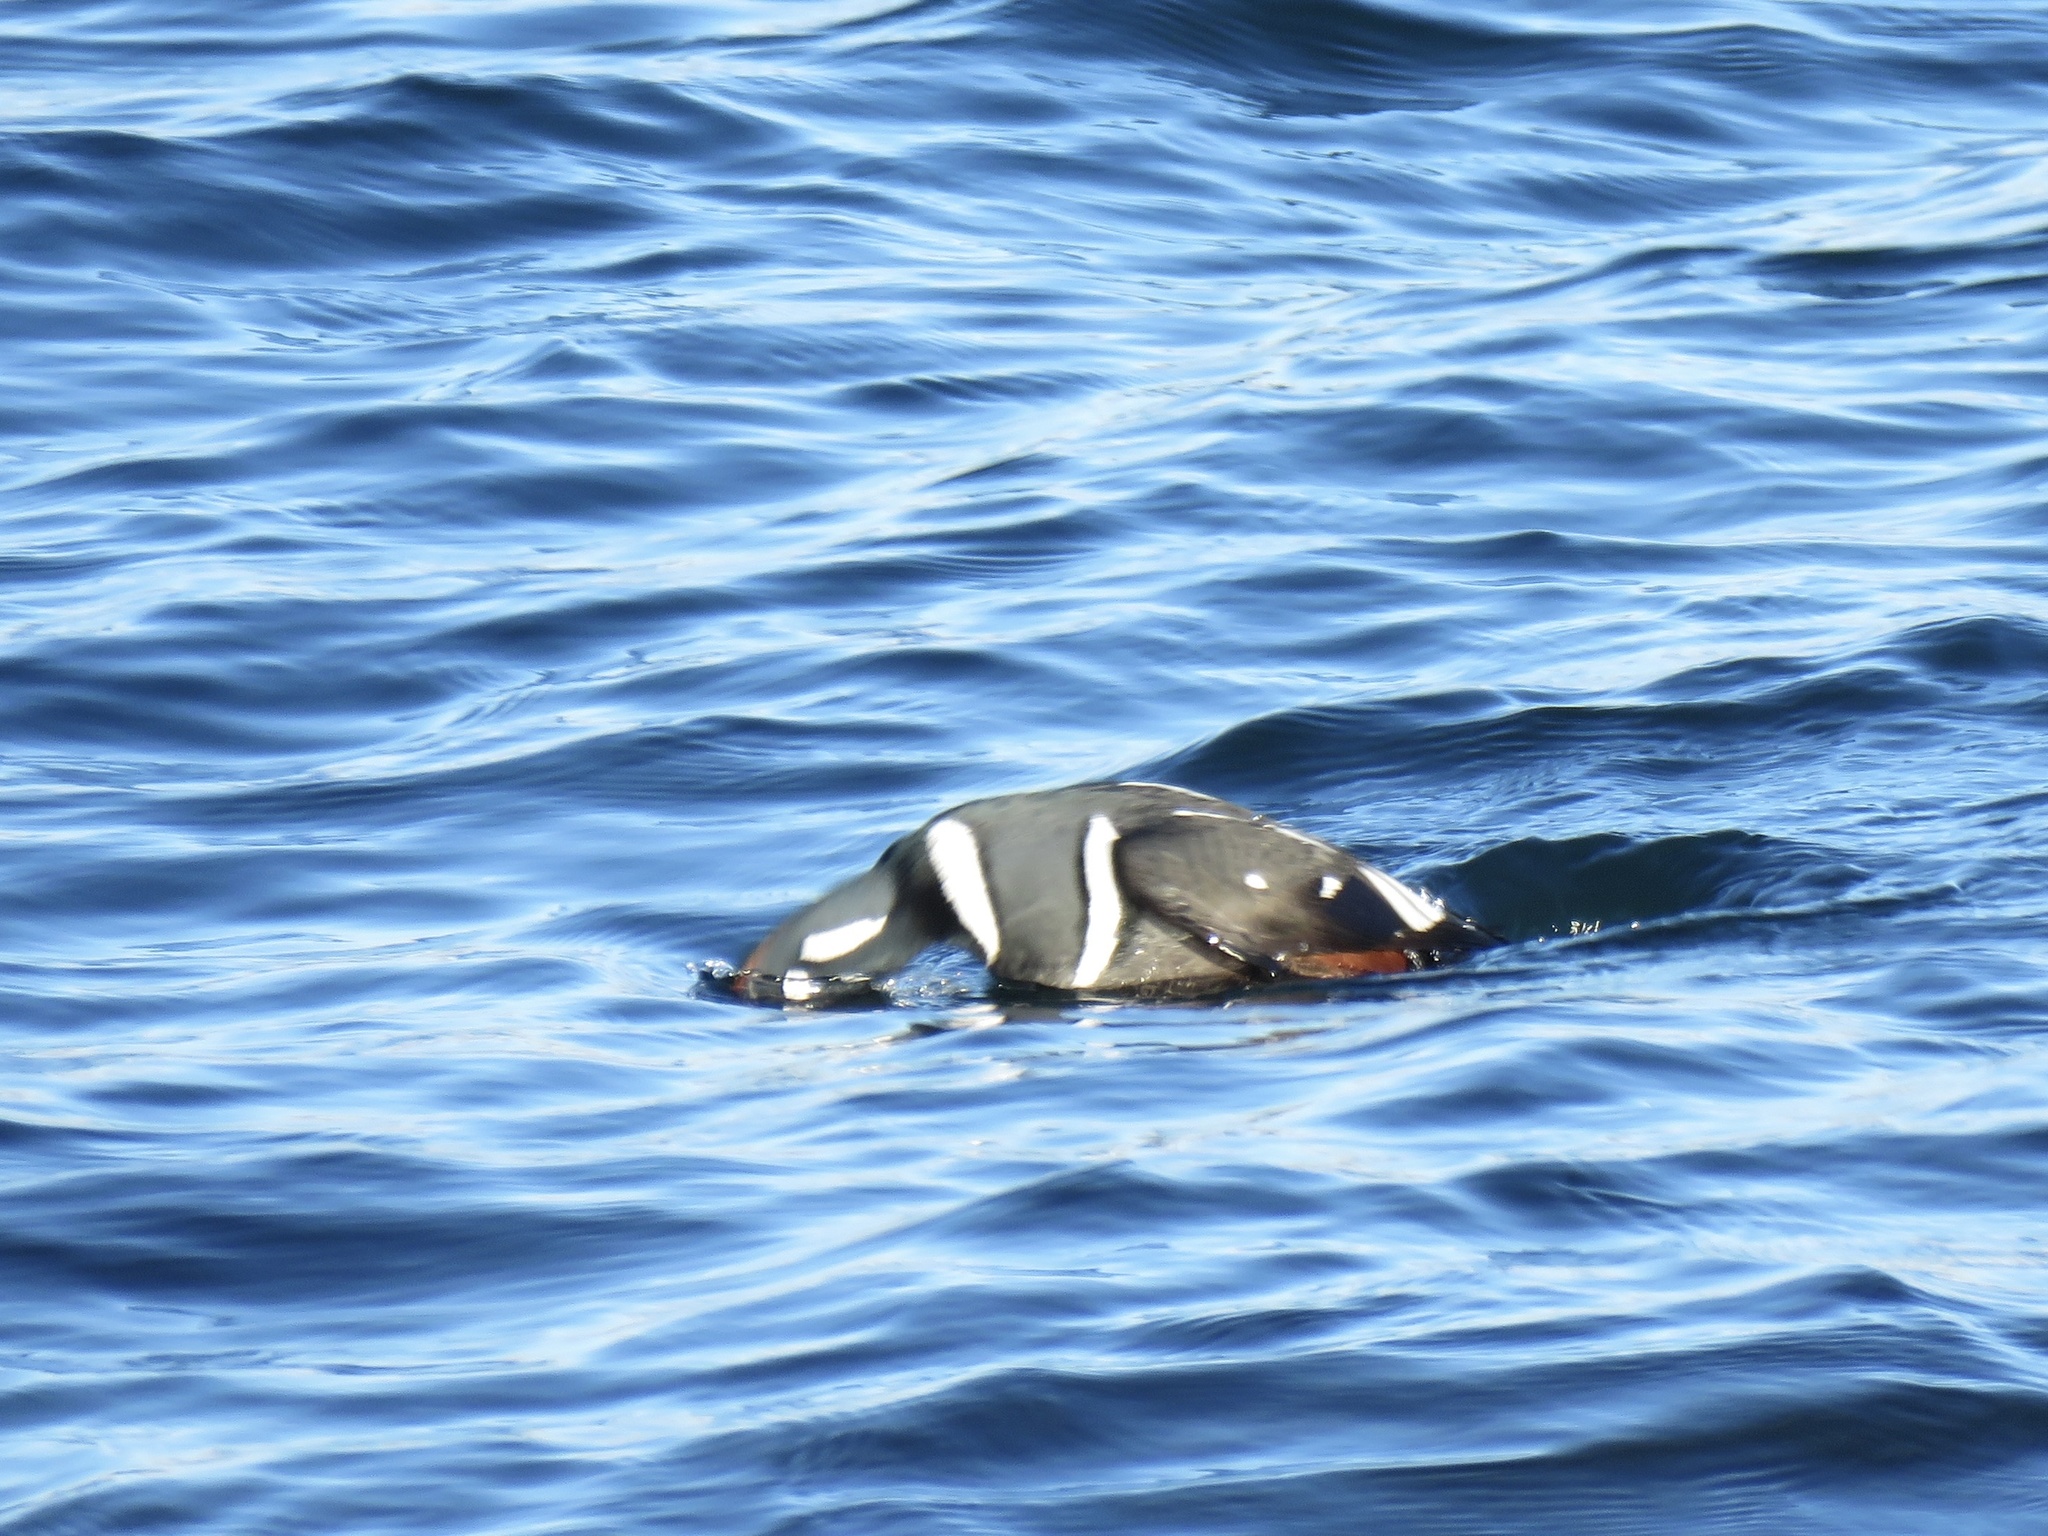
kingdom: Animalia
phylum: Chordata
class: Aves
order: Anseriformes
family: Anatidae
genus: Histrionicus
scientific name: Histrionicus histrionicus
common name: Harlequin duck
